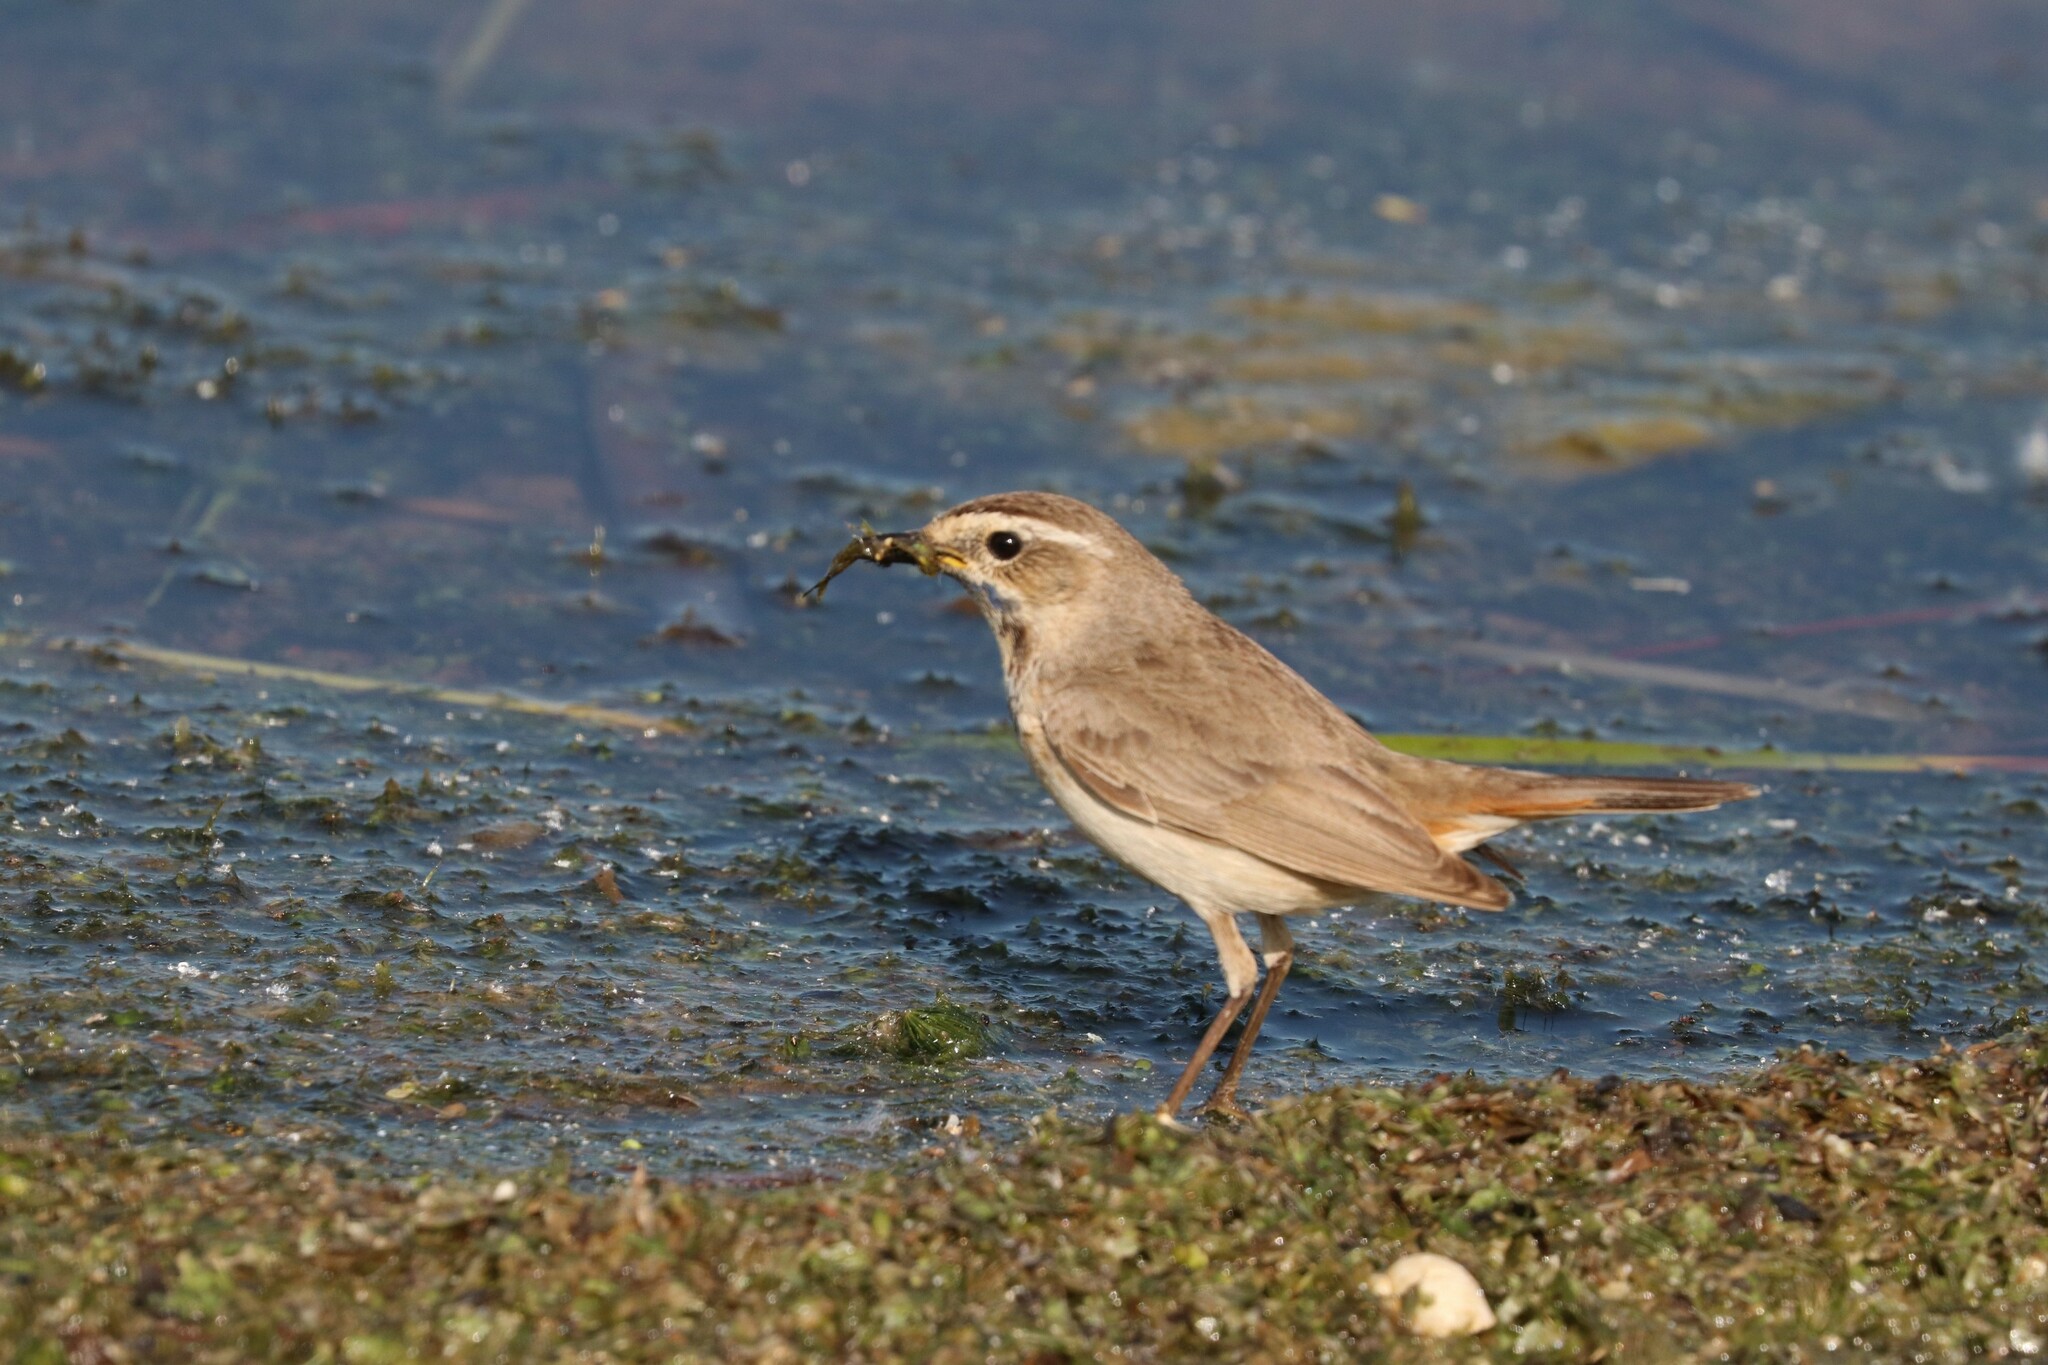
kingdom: Animalia
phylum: Chordata
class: Aves
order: Passeriformes
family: Muscicapidae
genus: Luscinia
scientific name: Luscinia svecica
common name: Bluethroat
